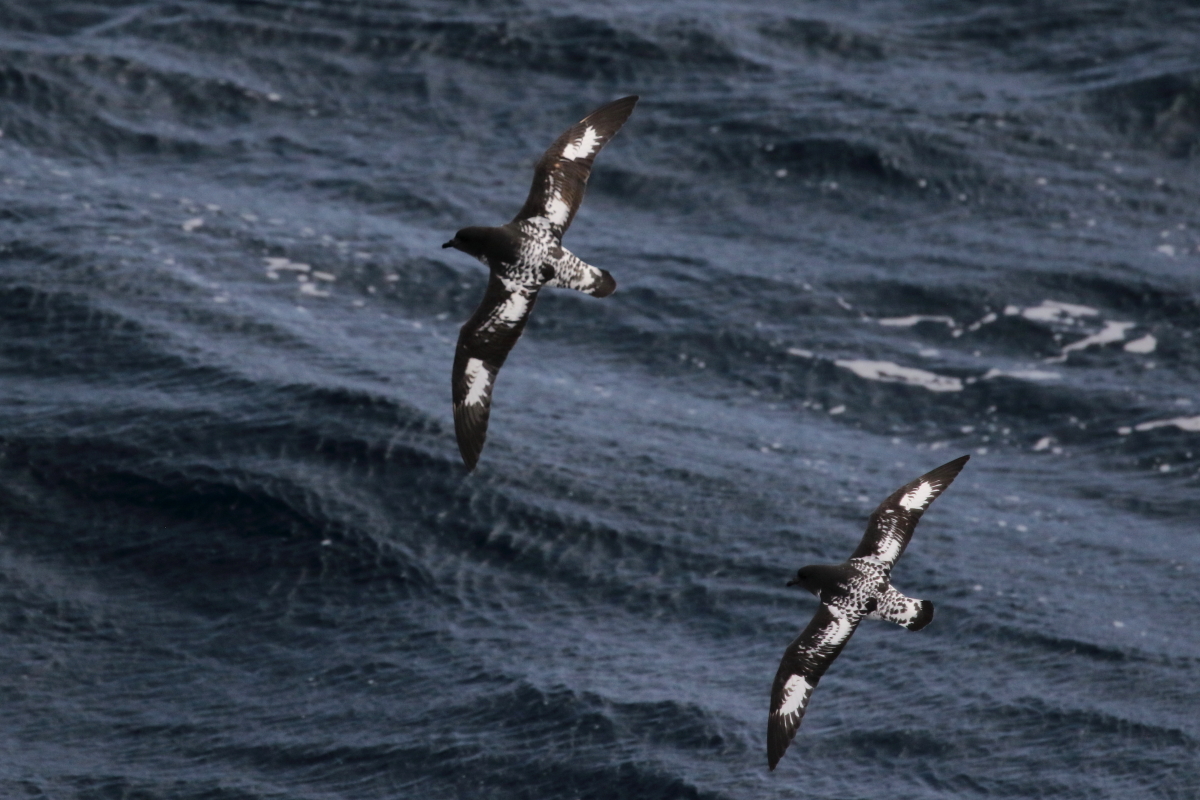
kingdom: Animalia
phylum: Chordata
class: Aves
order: Procellariiformes
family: Procellariidae
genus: Daption
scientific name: Daption capense
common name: Cape petrel
